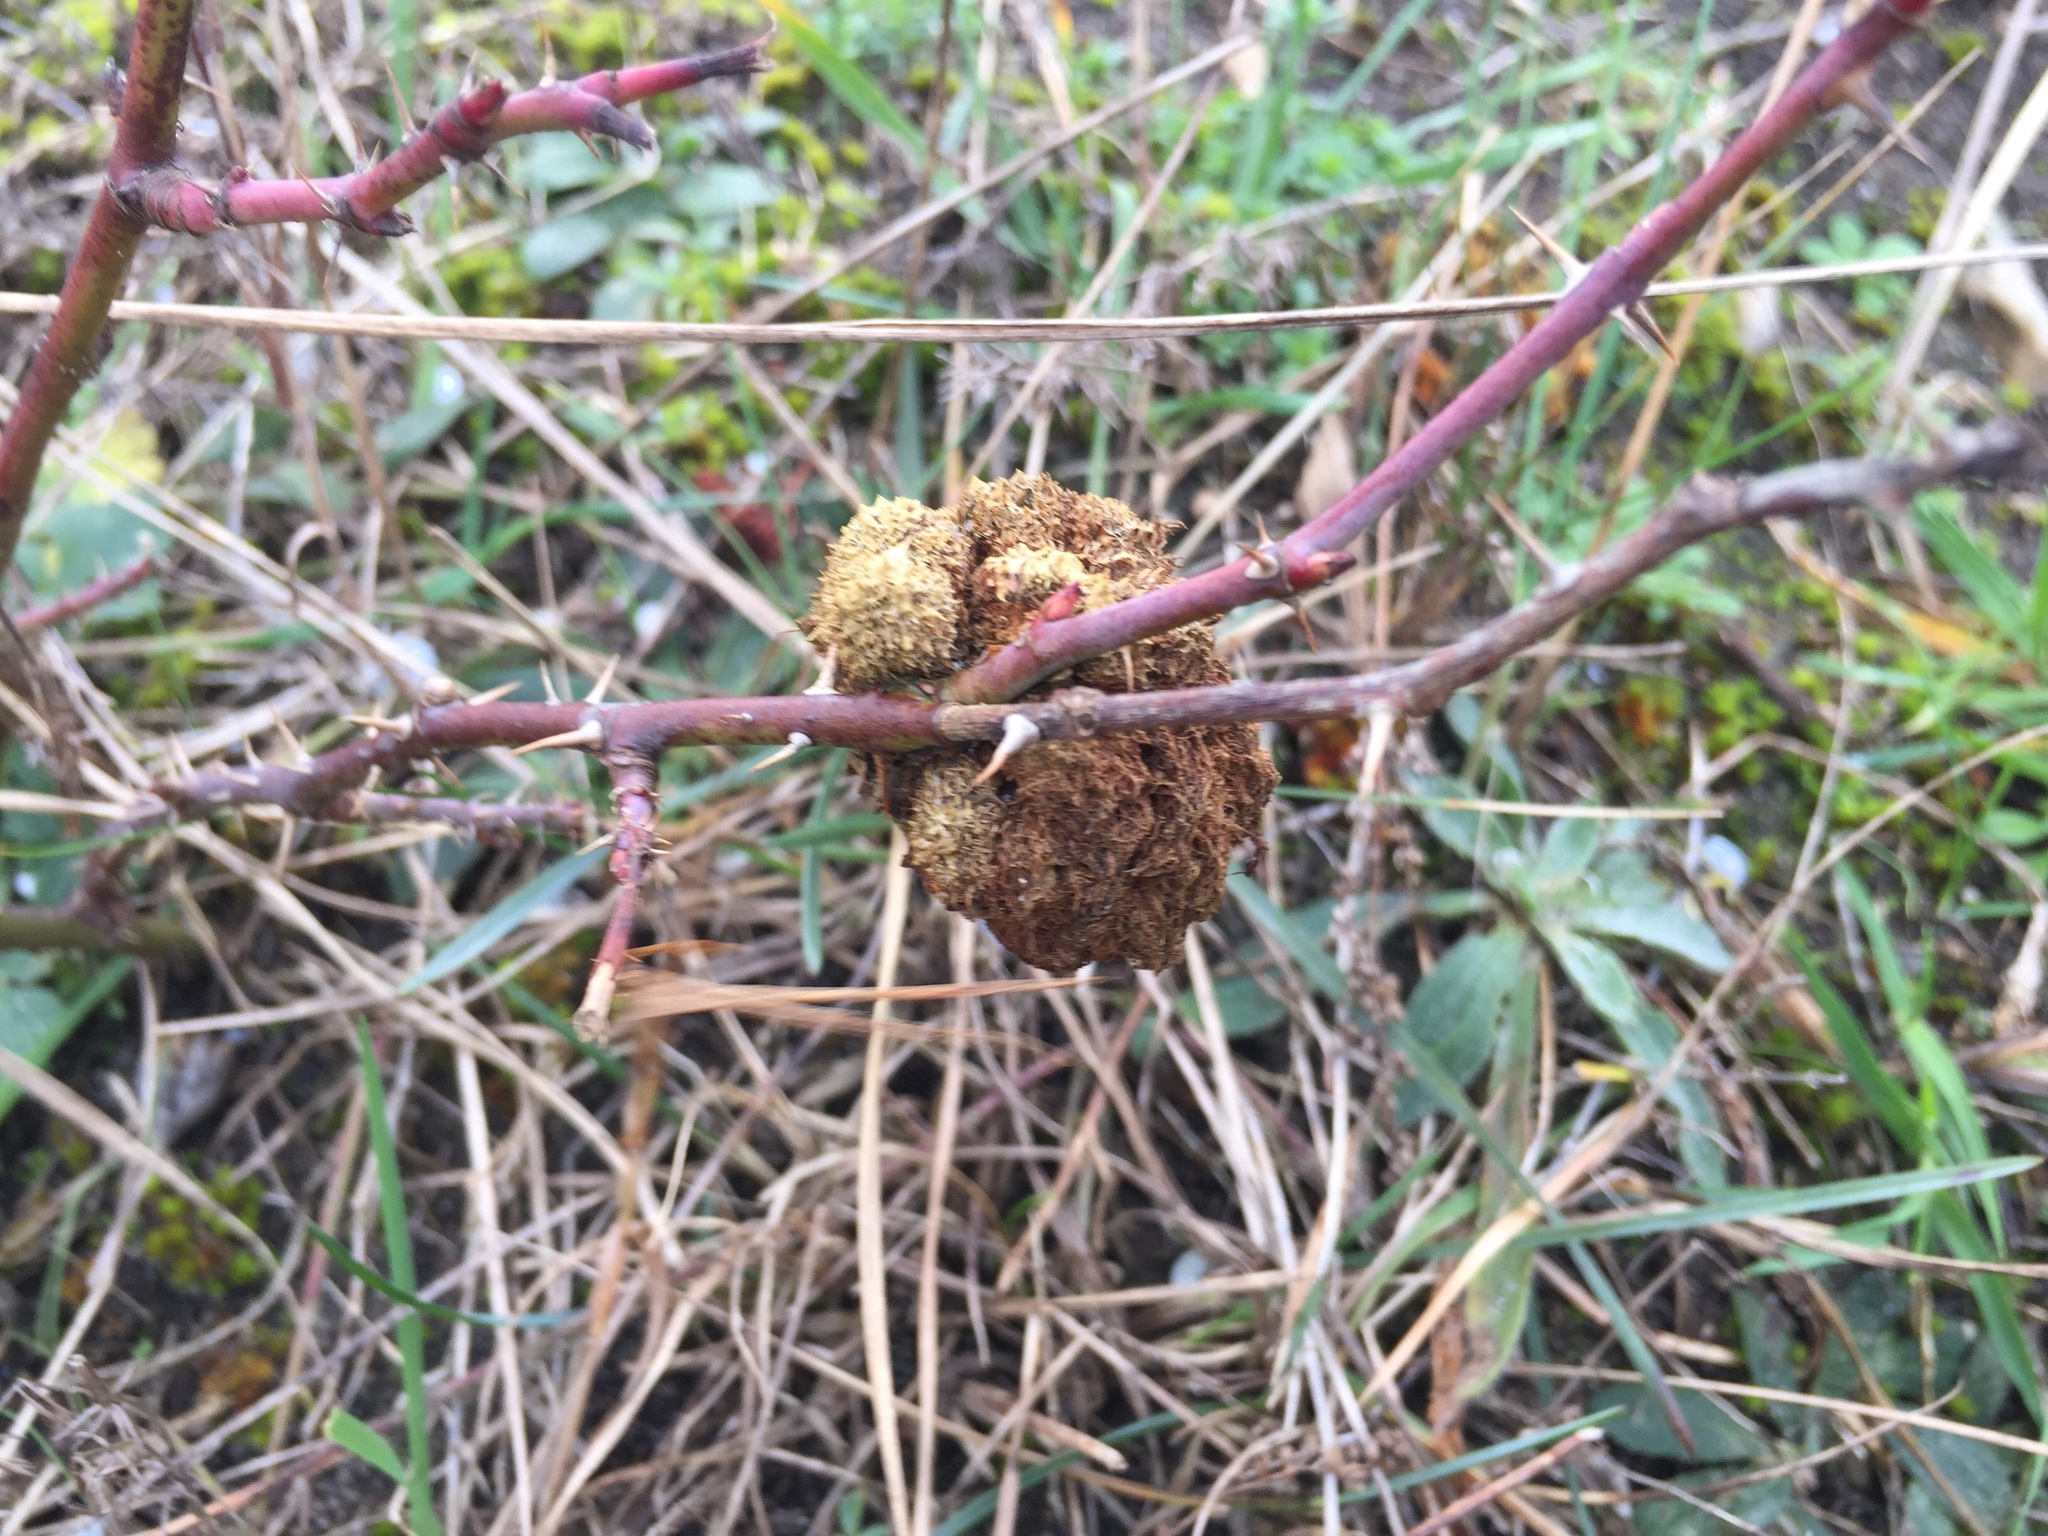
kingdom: Animalia
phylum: Arthropoda
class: Insecta
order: Hymenoptera
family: Cynipidae
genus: Diplolepis
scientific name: Diplolepis rosae
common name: Bedeguar gall
